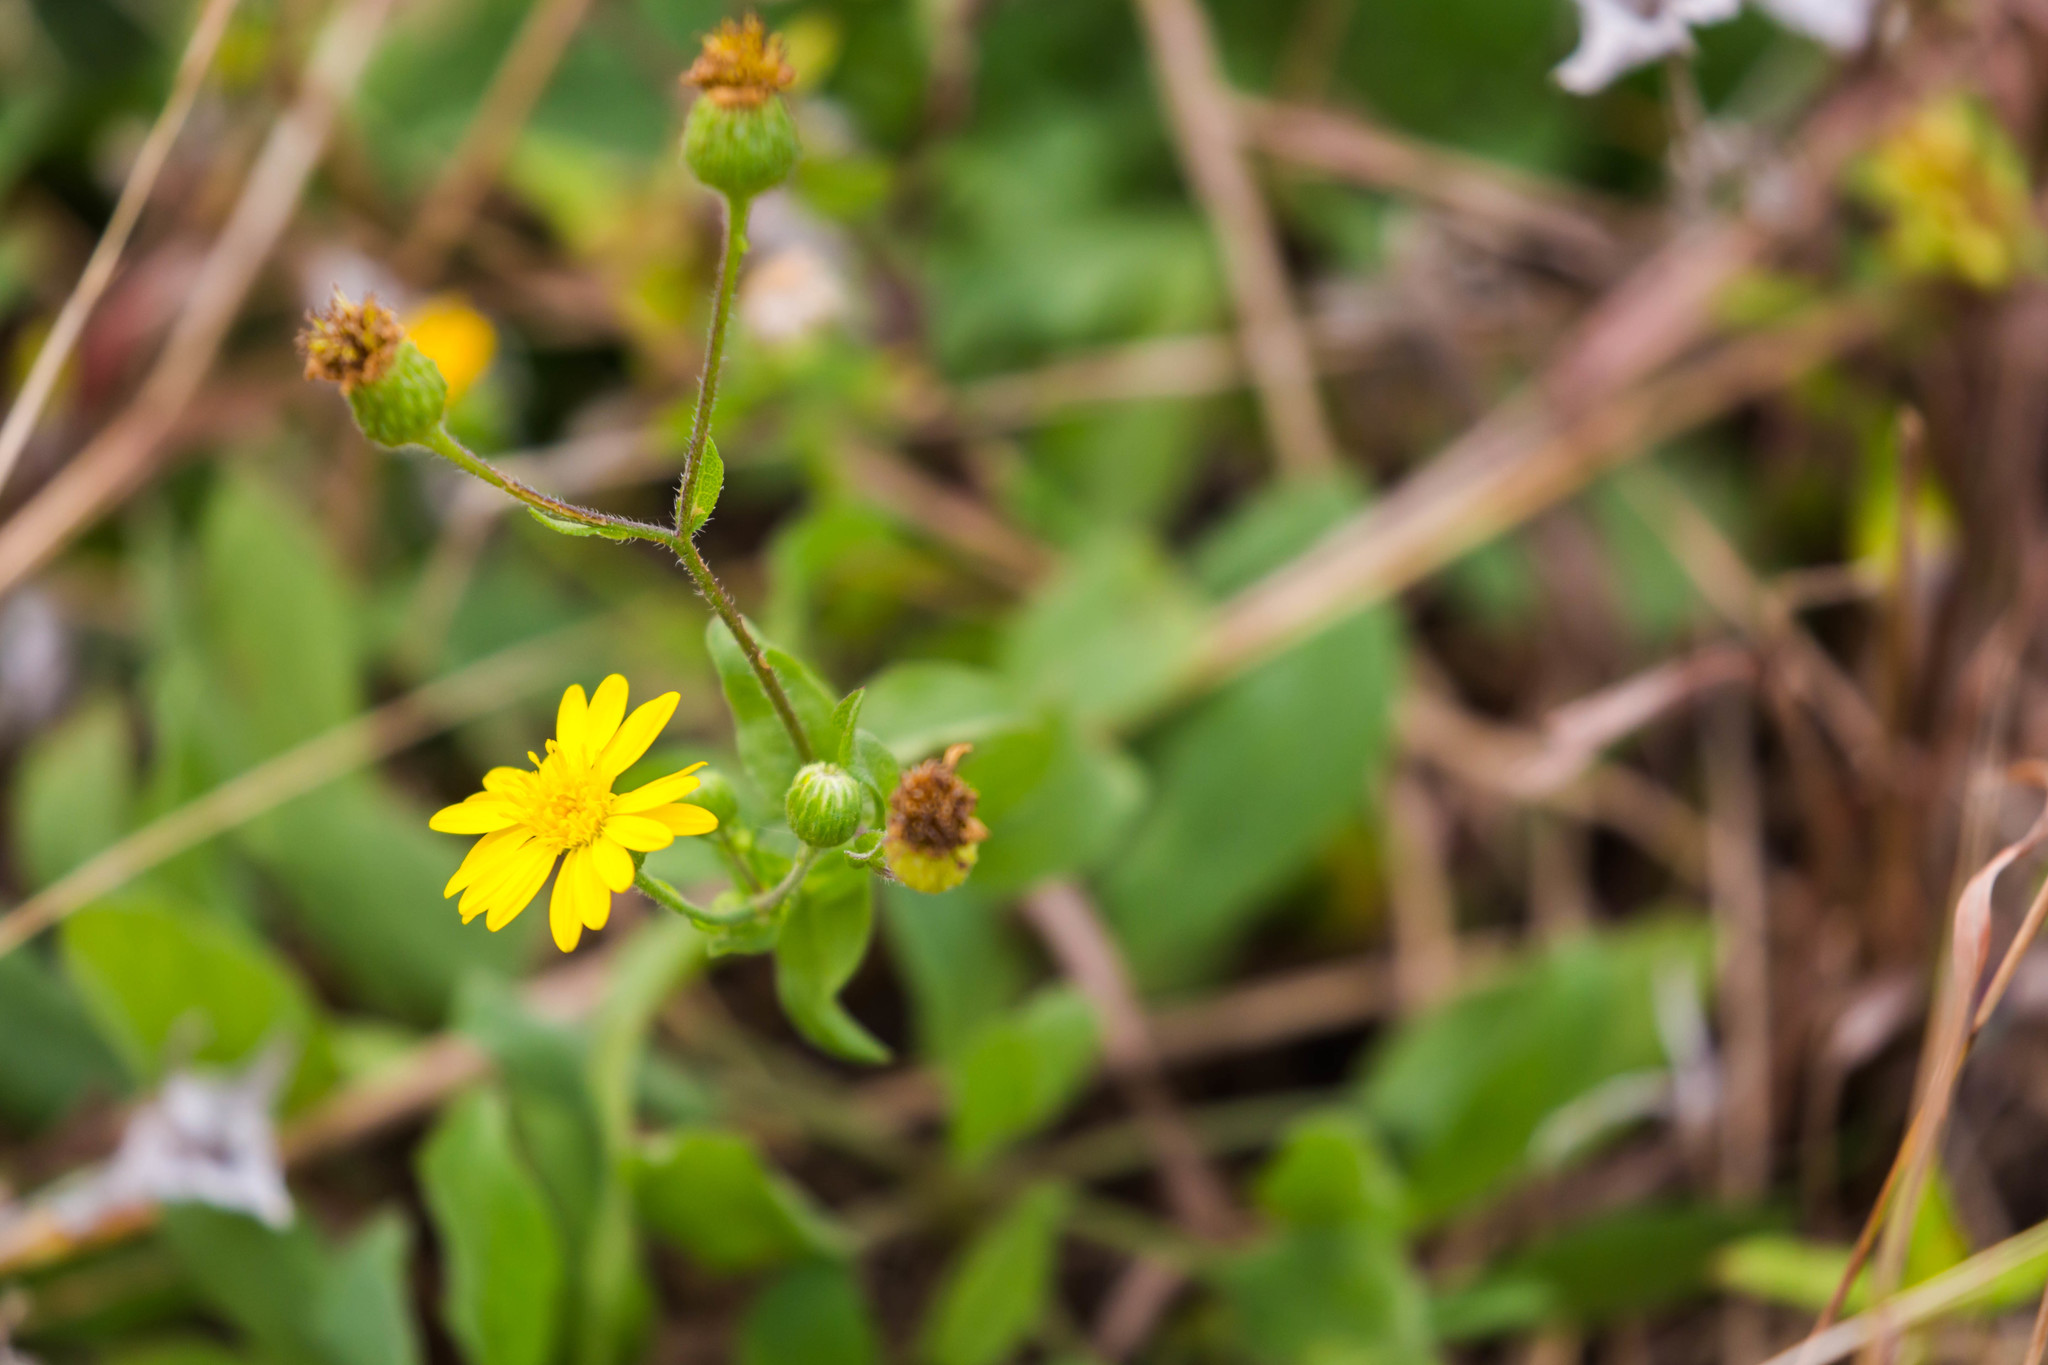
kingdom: Plantae
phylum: Tracheophyta
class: Magnoliopsida
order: Asterales
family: Asteraceae
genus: Heterotheca
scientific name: Heterotheca subaxillaris
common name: Camphorweed
